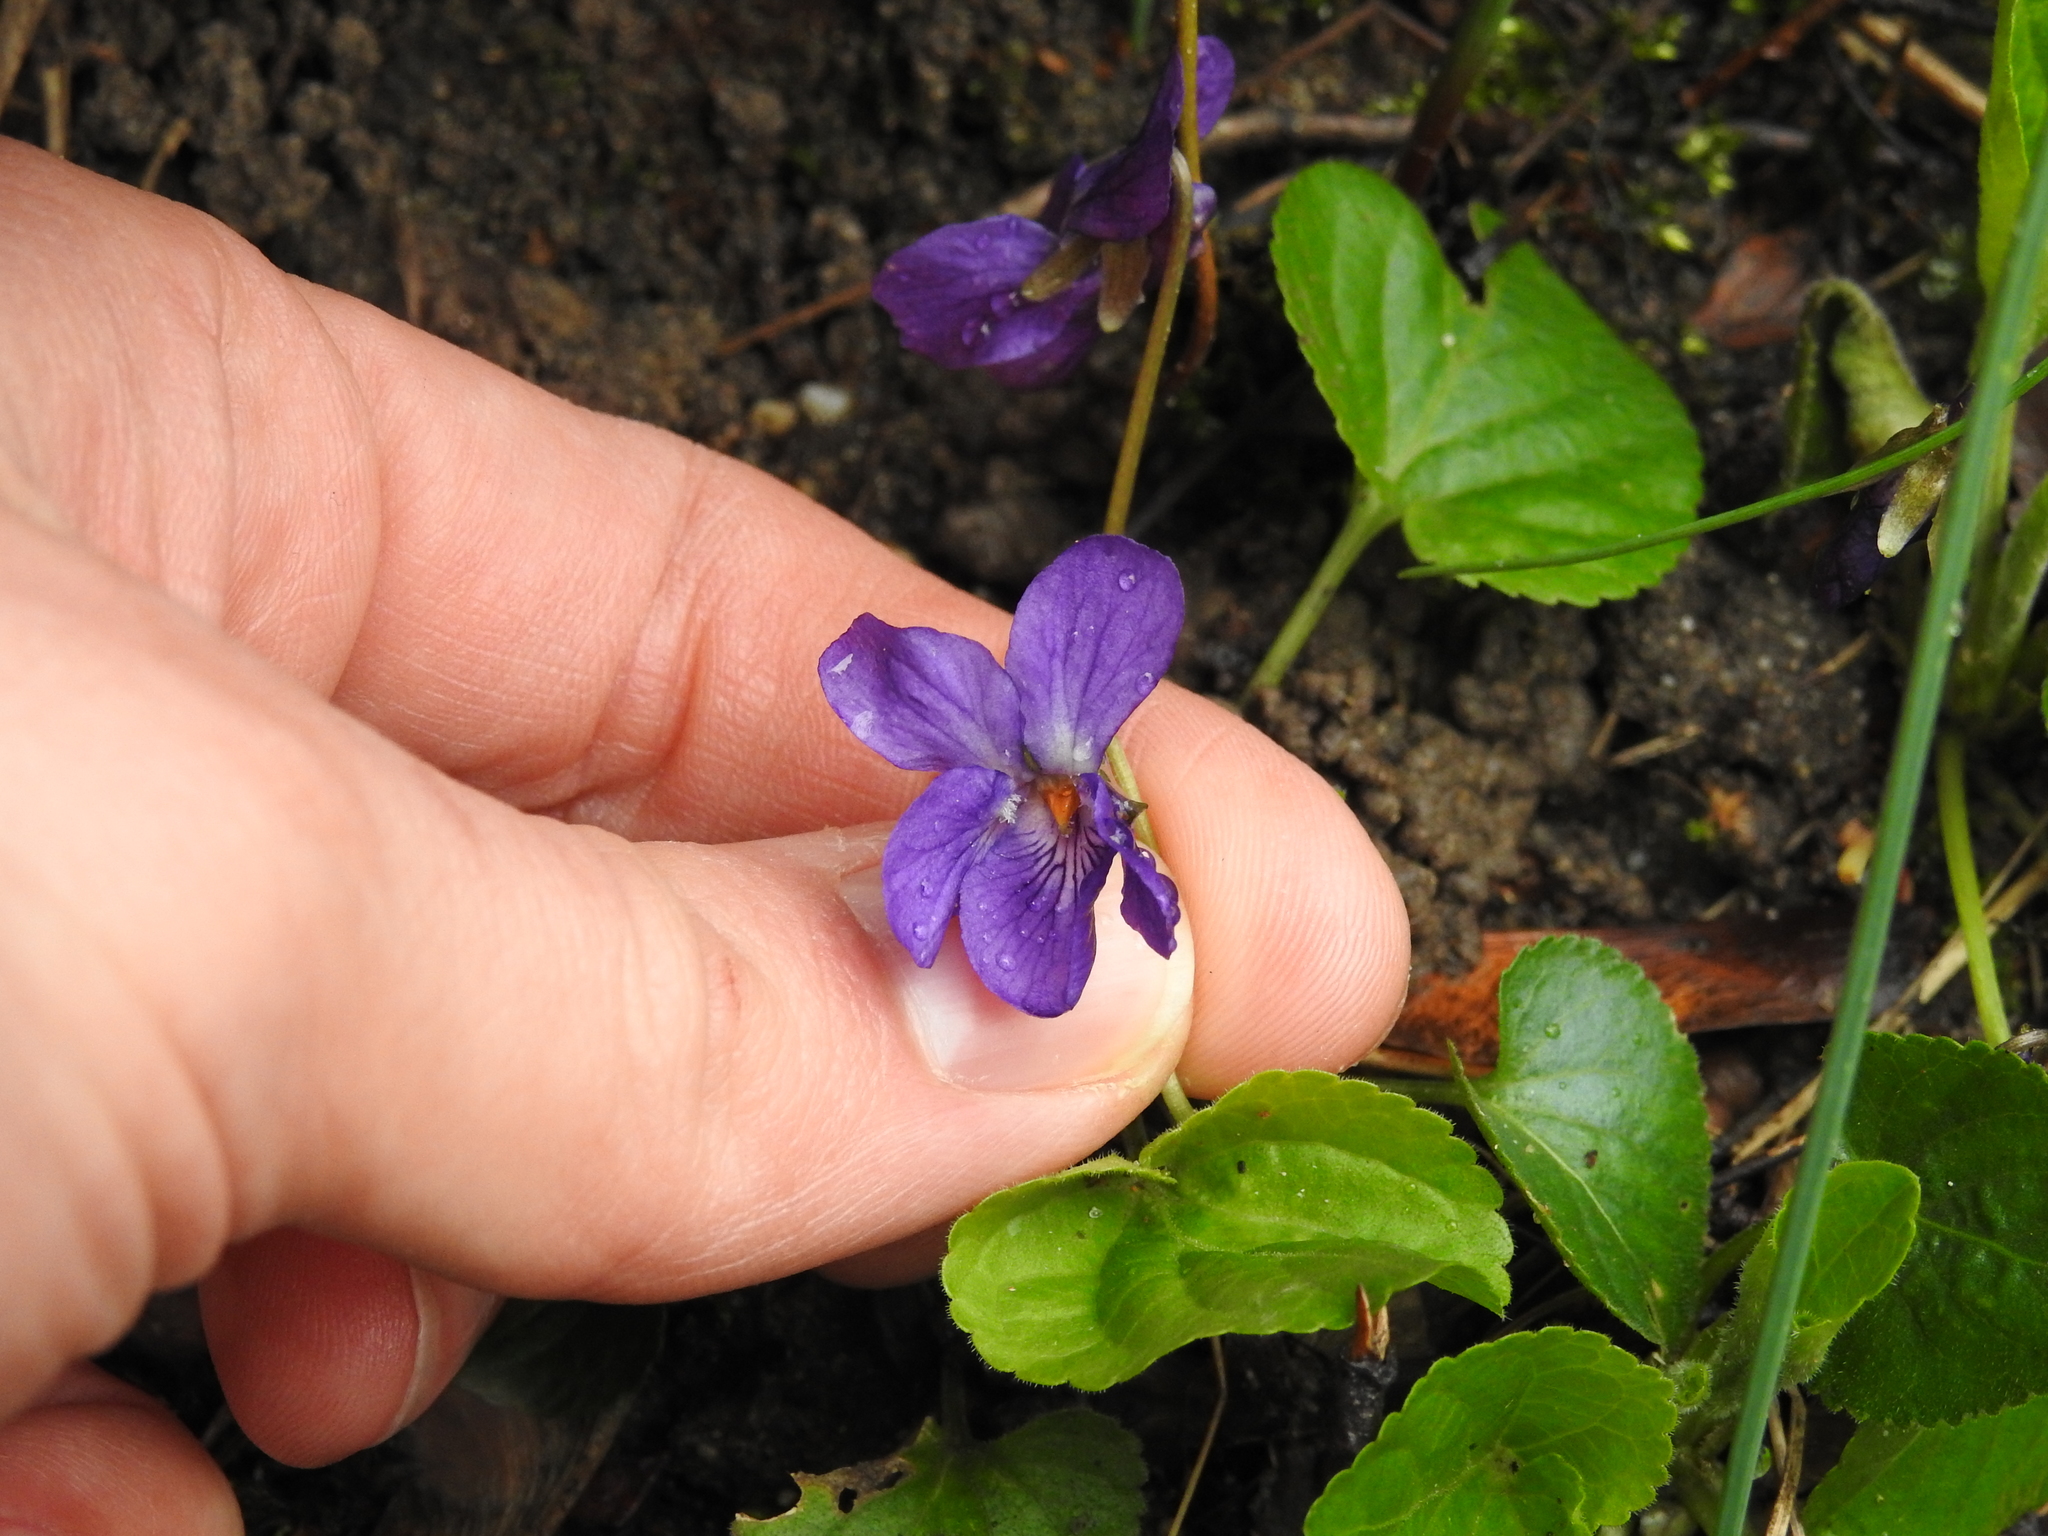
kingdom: Plantae
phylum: Tracheophyta
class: Magnoliopsida
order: Malpighiales
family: Violaceae
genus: Viola
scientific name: Viola odorata
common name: Sweet violet
